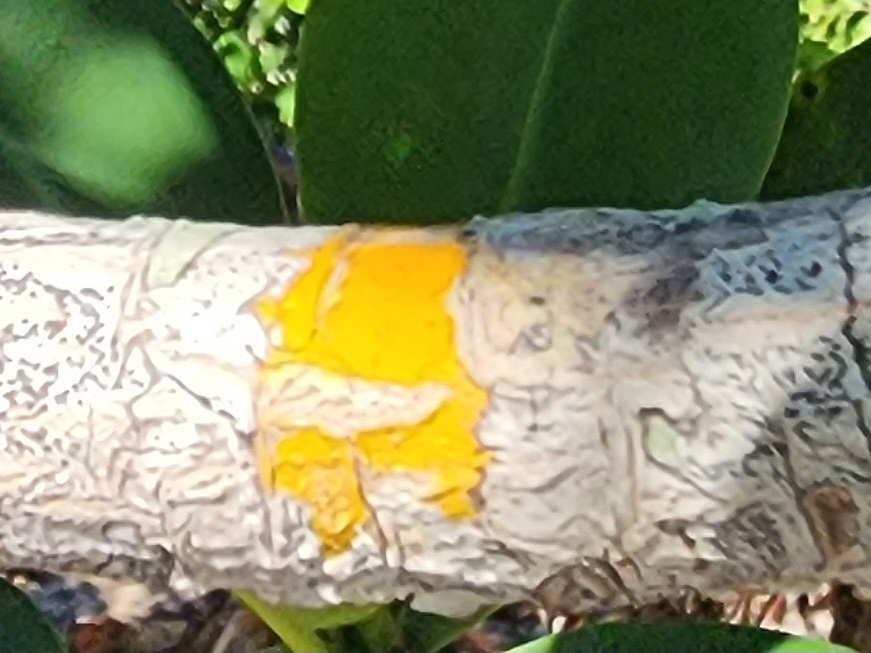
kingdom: Fungi
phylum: Ascomycota
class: Eurotiomycetes
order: Pyrenulales
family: Pyrenulaceae
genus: Pyrenula
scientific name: Pyrenula ochraceoflava
